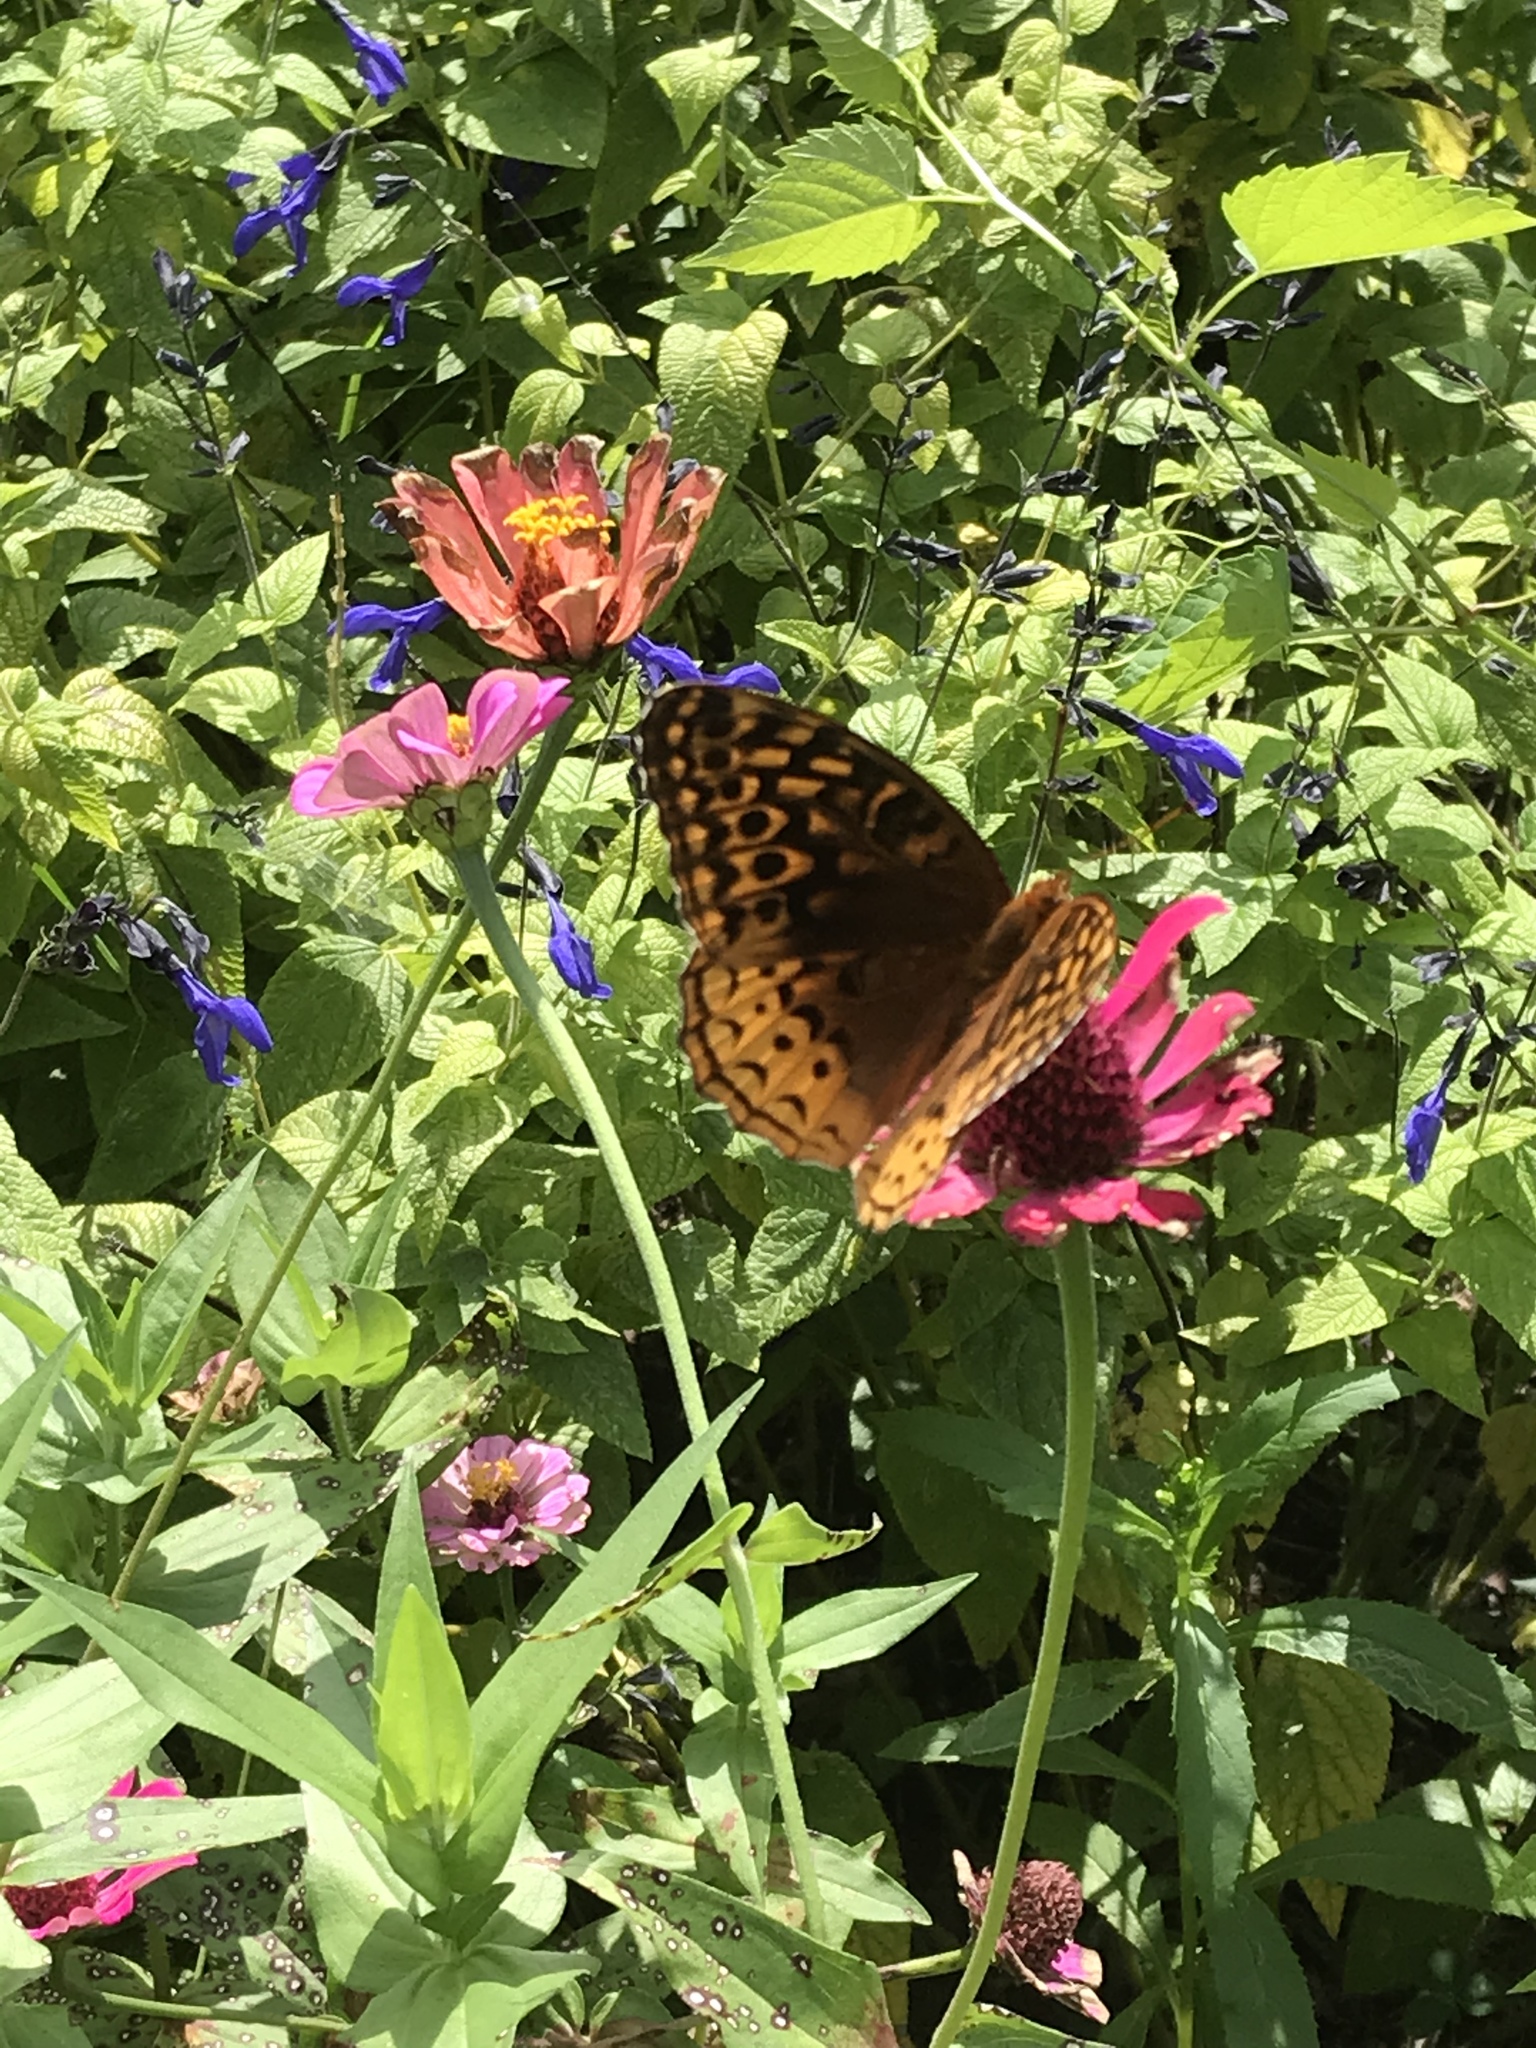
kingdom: Animalia
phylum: Arthropoda
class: Insecta
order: Lepidoptera
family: Nymphalidae
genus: Speyeria
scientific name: Speyeria cybele
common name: Great spangled fritillary
